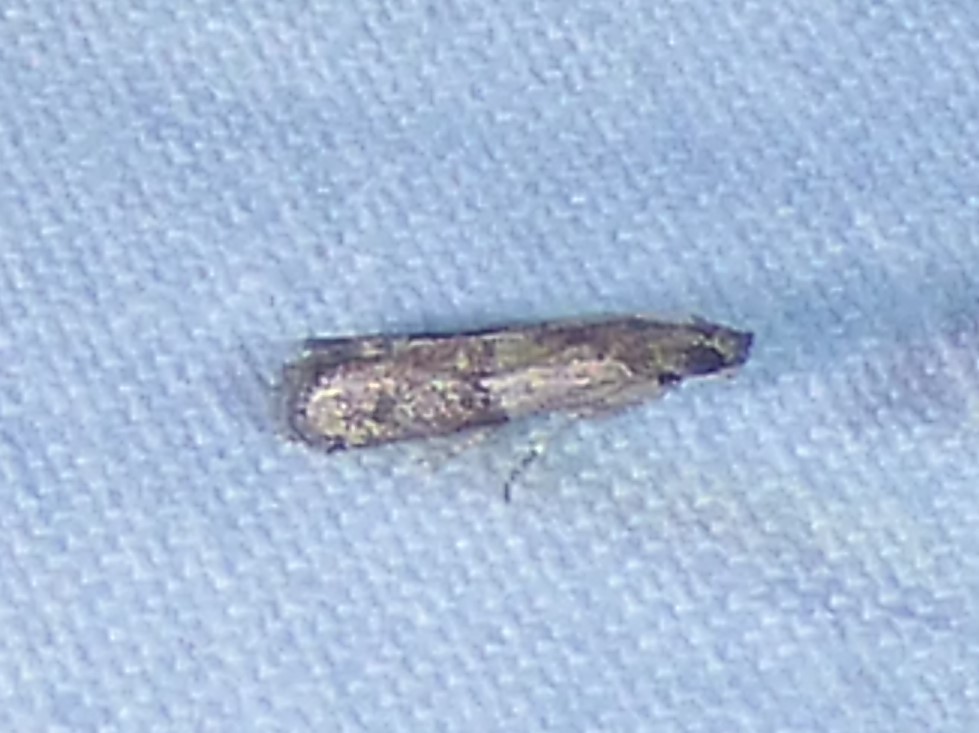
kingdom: Animalia
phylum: Arthropoda
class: Insecta
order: Lepidoptera
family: Pyralidae
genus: Ephestiodes
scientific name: Ephestiodes infimella
